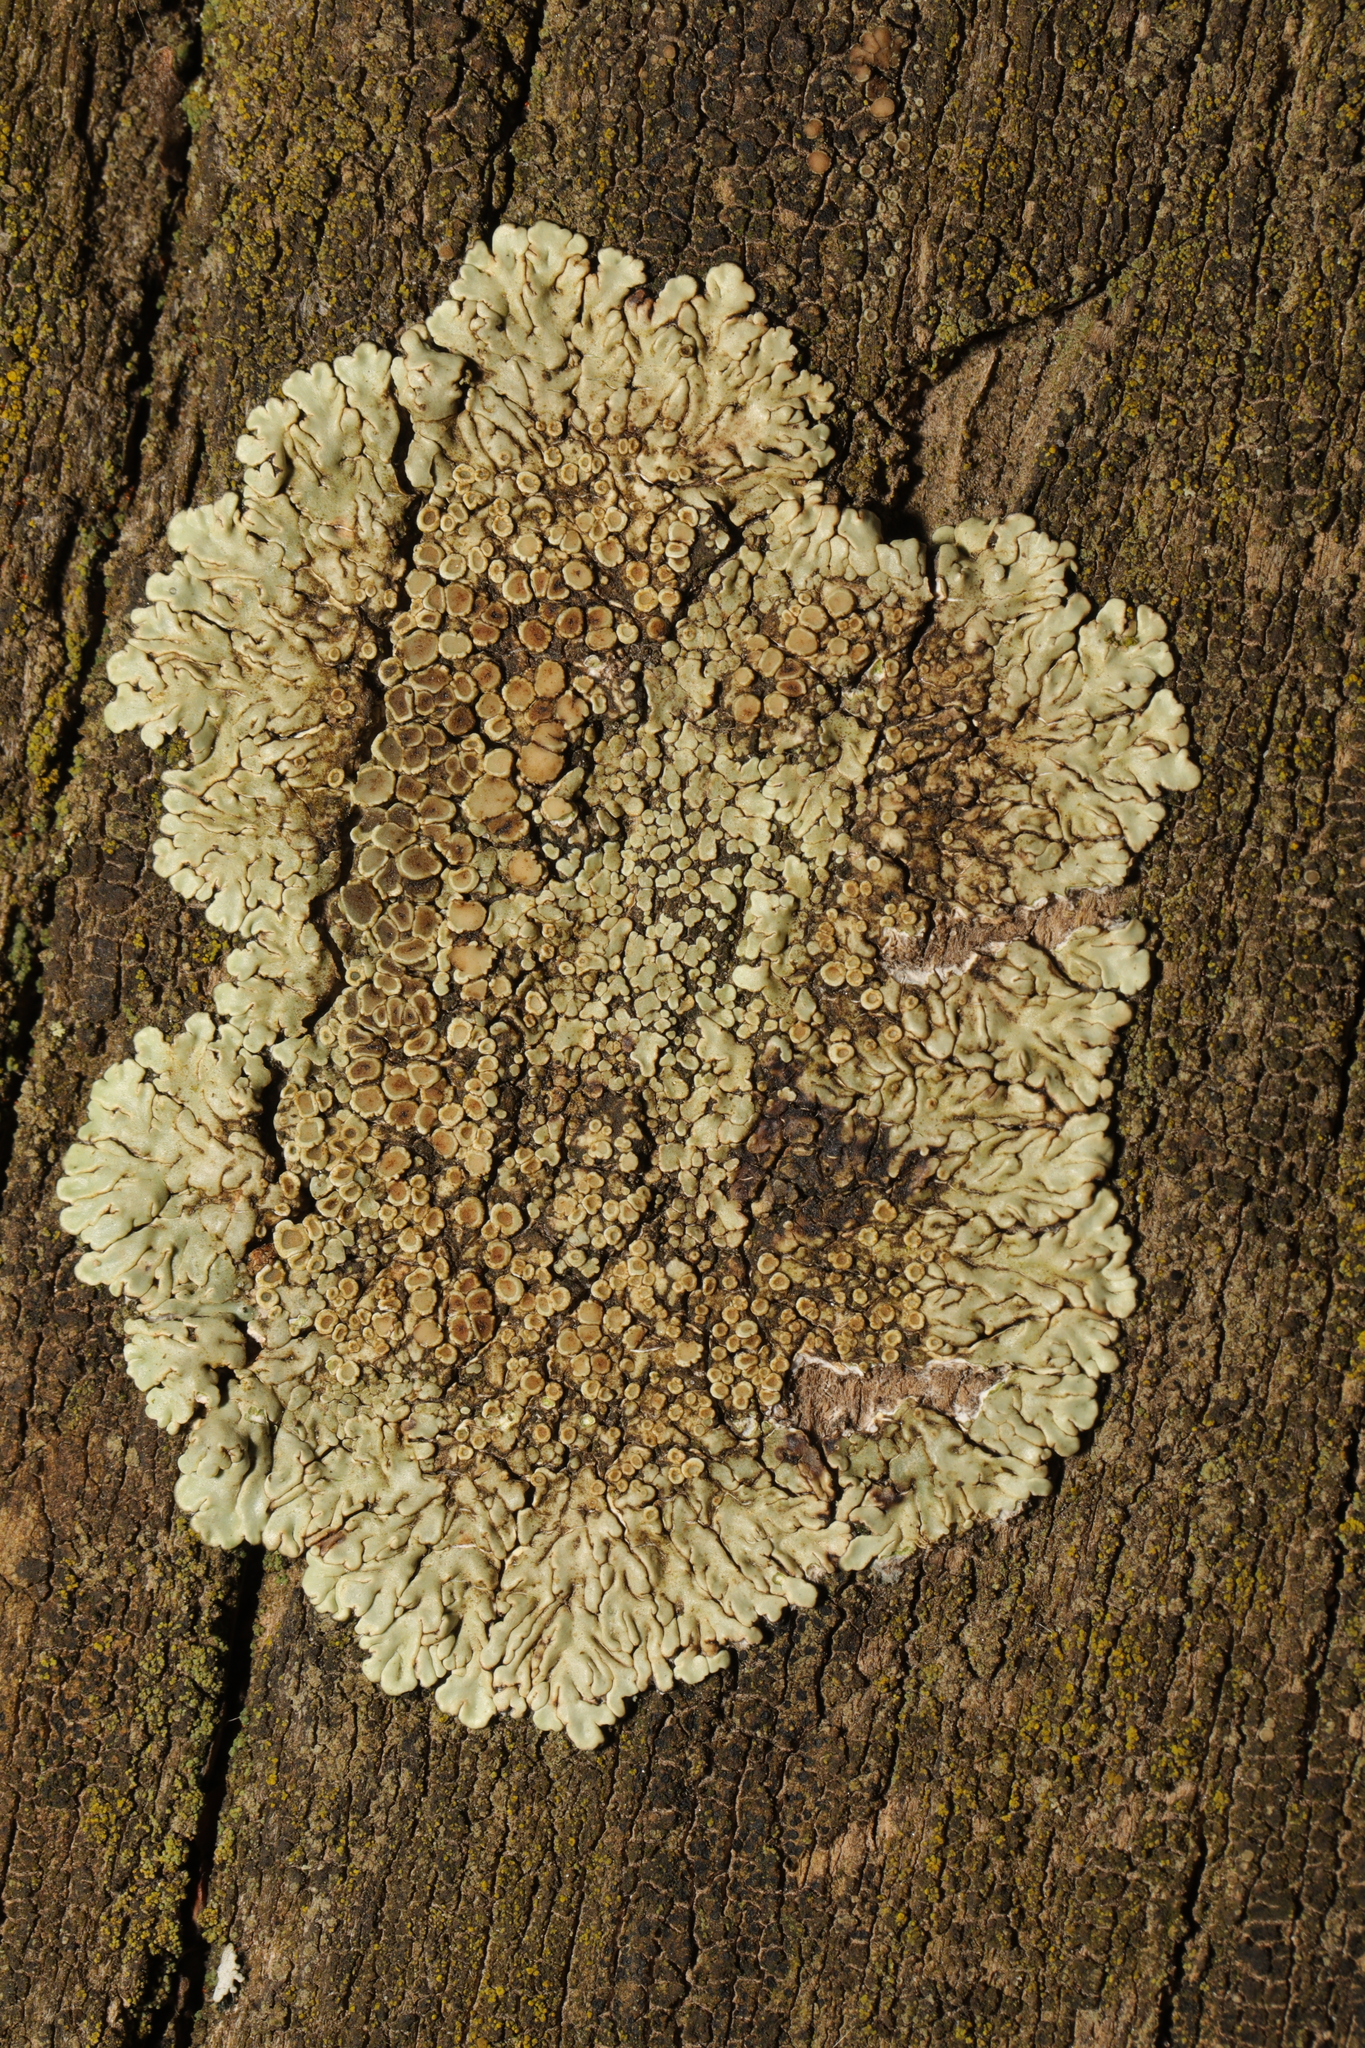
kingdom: Fungi
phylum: Ascomycota
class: Lecanoromycetes
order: Lecanorales
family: Lecanoraceae
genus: Protoparmeliopsis
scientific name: Protoparmeliopsis muralis
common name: Stonewall rim lichen
